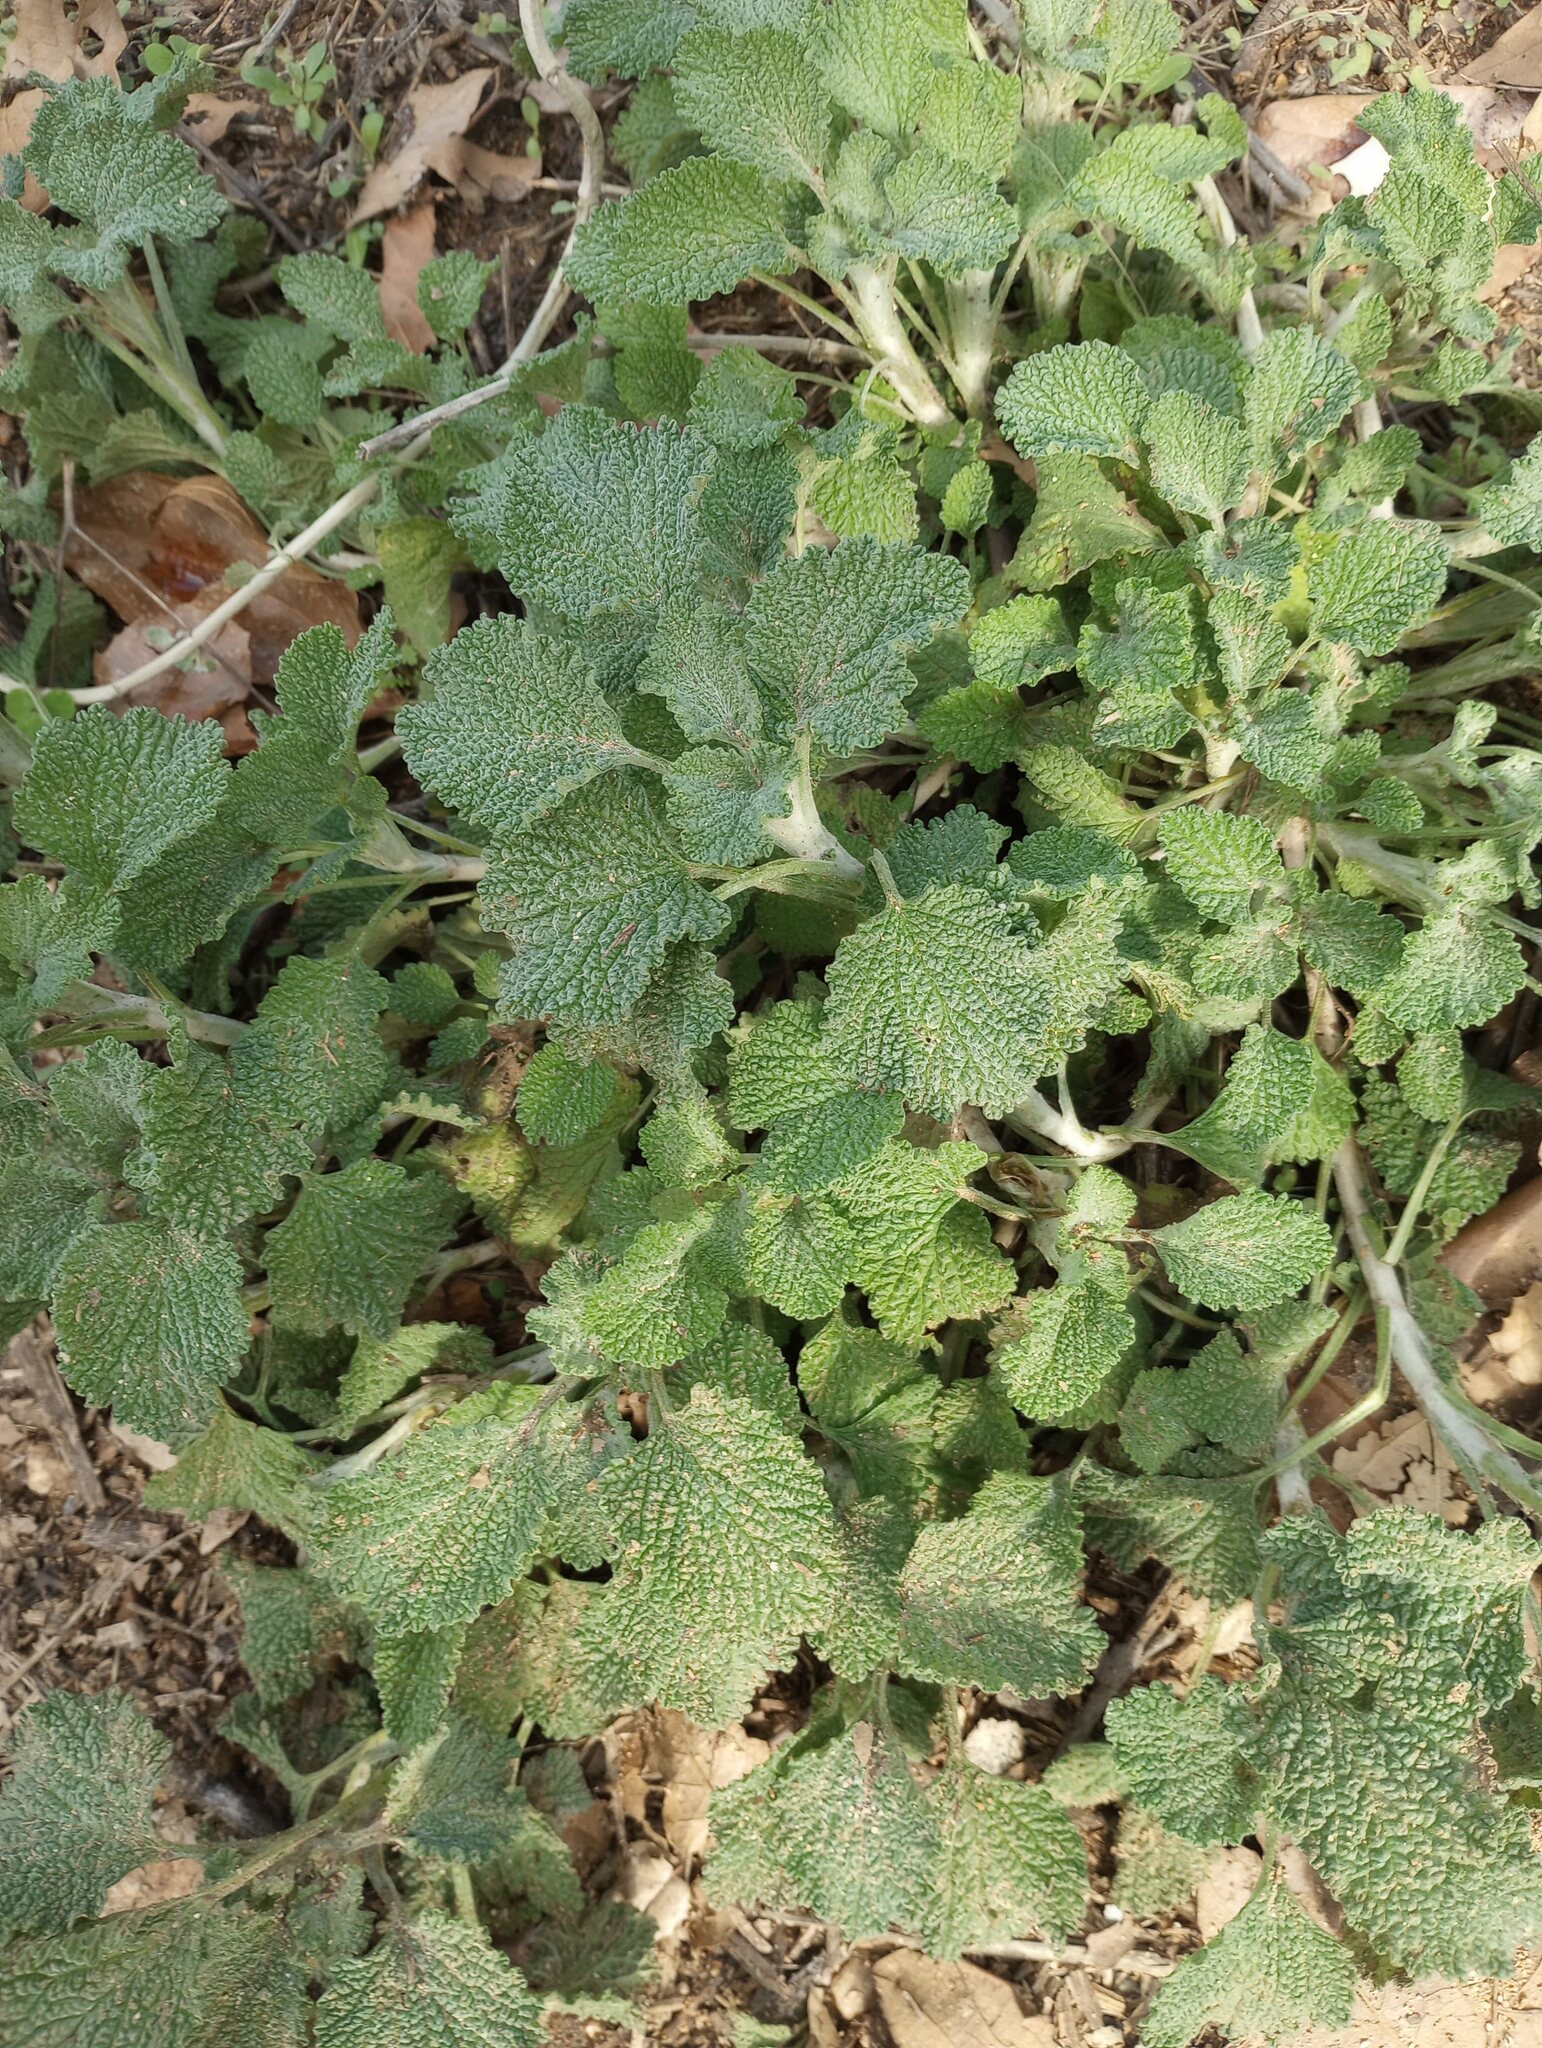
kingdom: Plantae
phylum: Tracheophyta
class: Magnoliopsida
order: Lamiales
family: Lamiaceae
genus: Marrubium
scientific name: Marrubium vulgare
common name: Horehound
